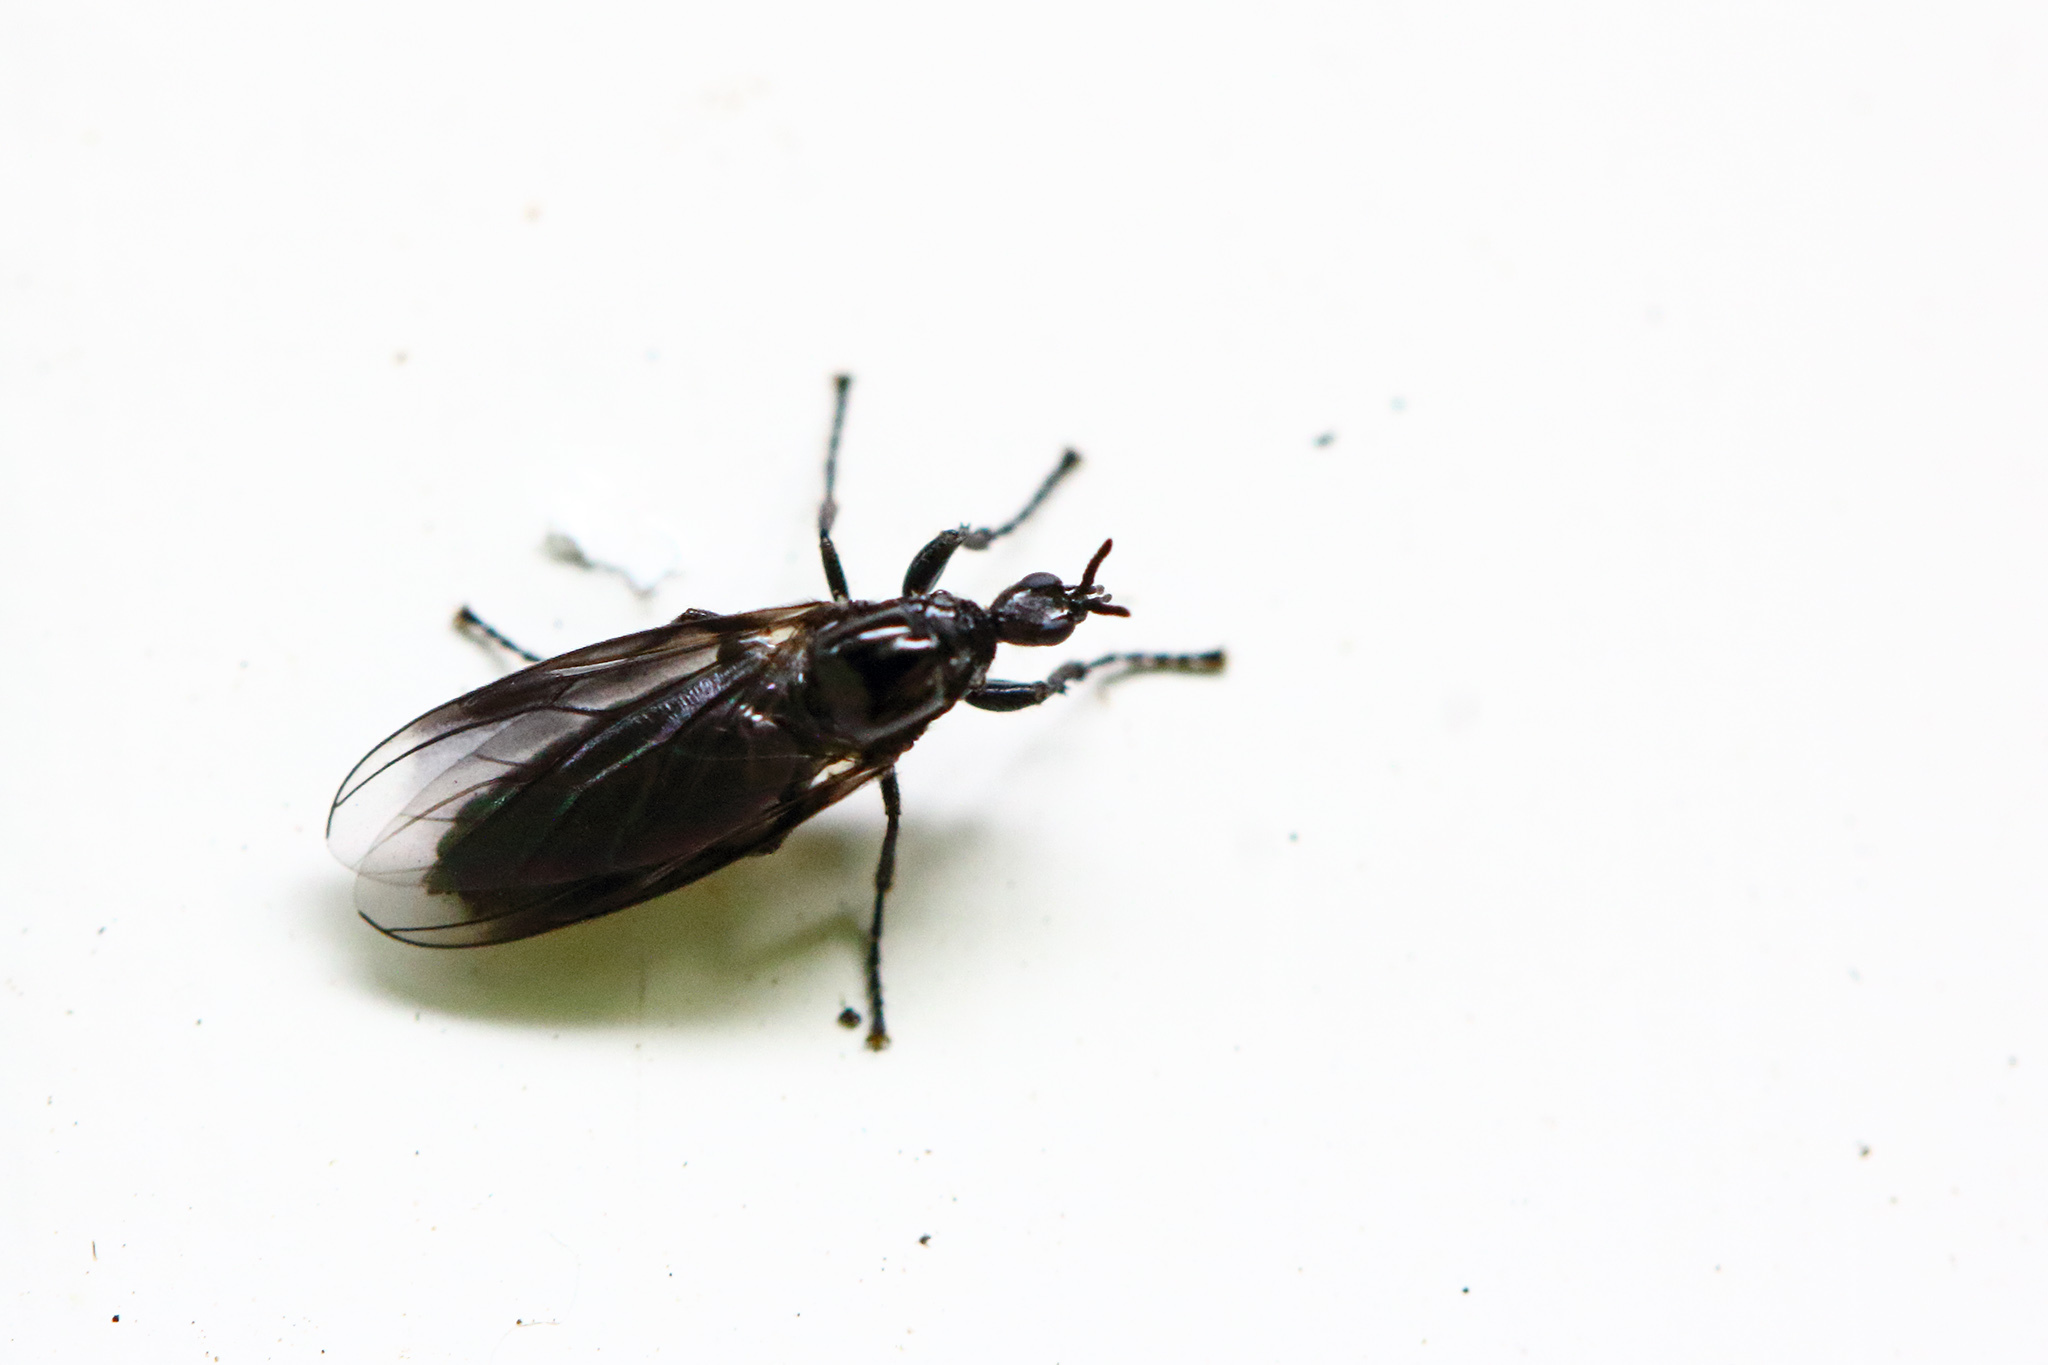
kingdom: Animalia
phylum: Arthropoda
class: Insecta
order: Diptera
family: Bibionidae
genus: Dilophus
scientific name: Dilophus febrilis
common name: Fever fly
